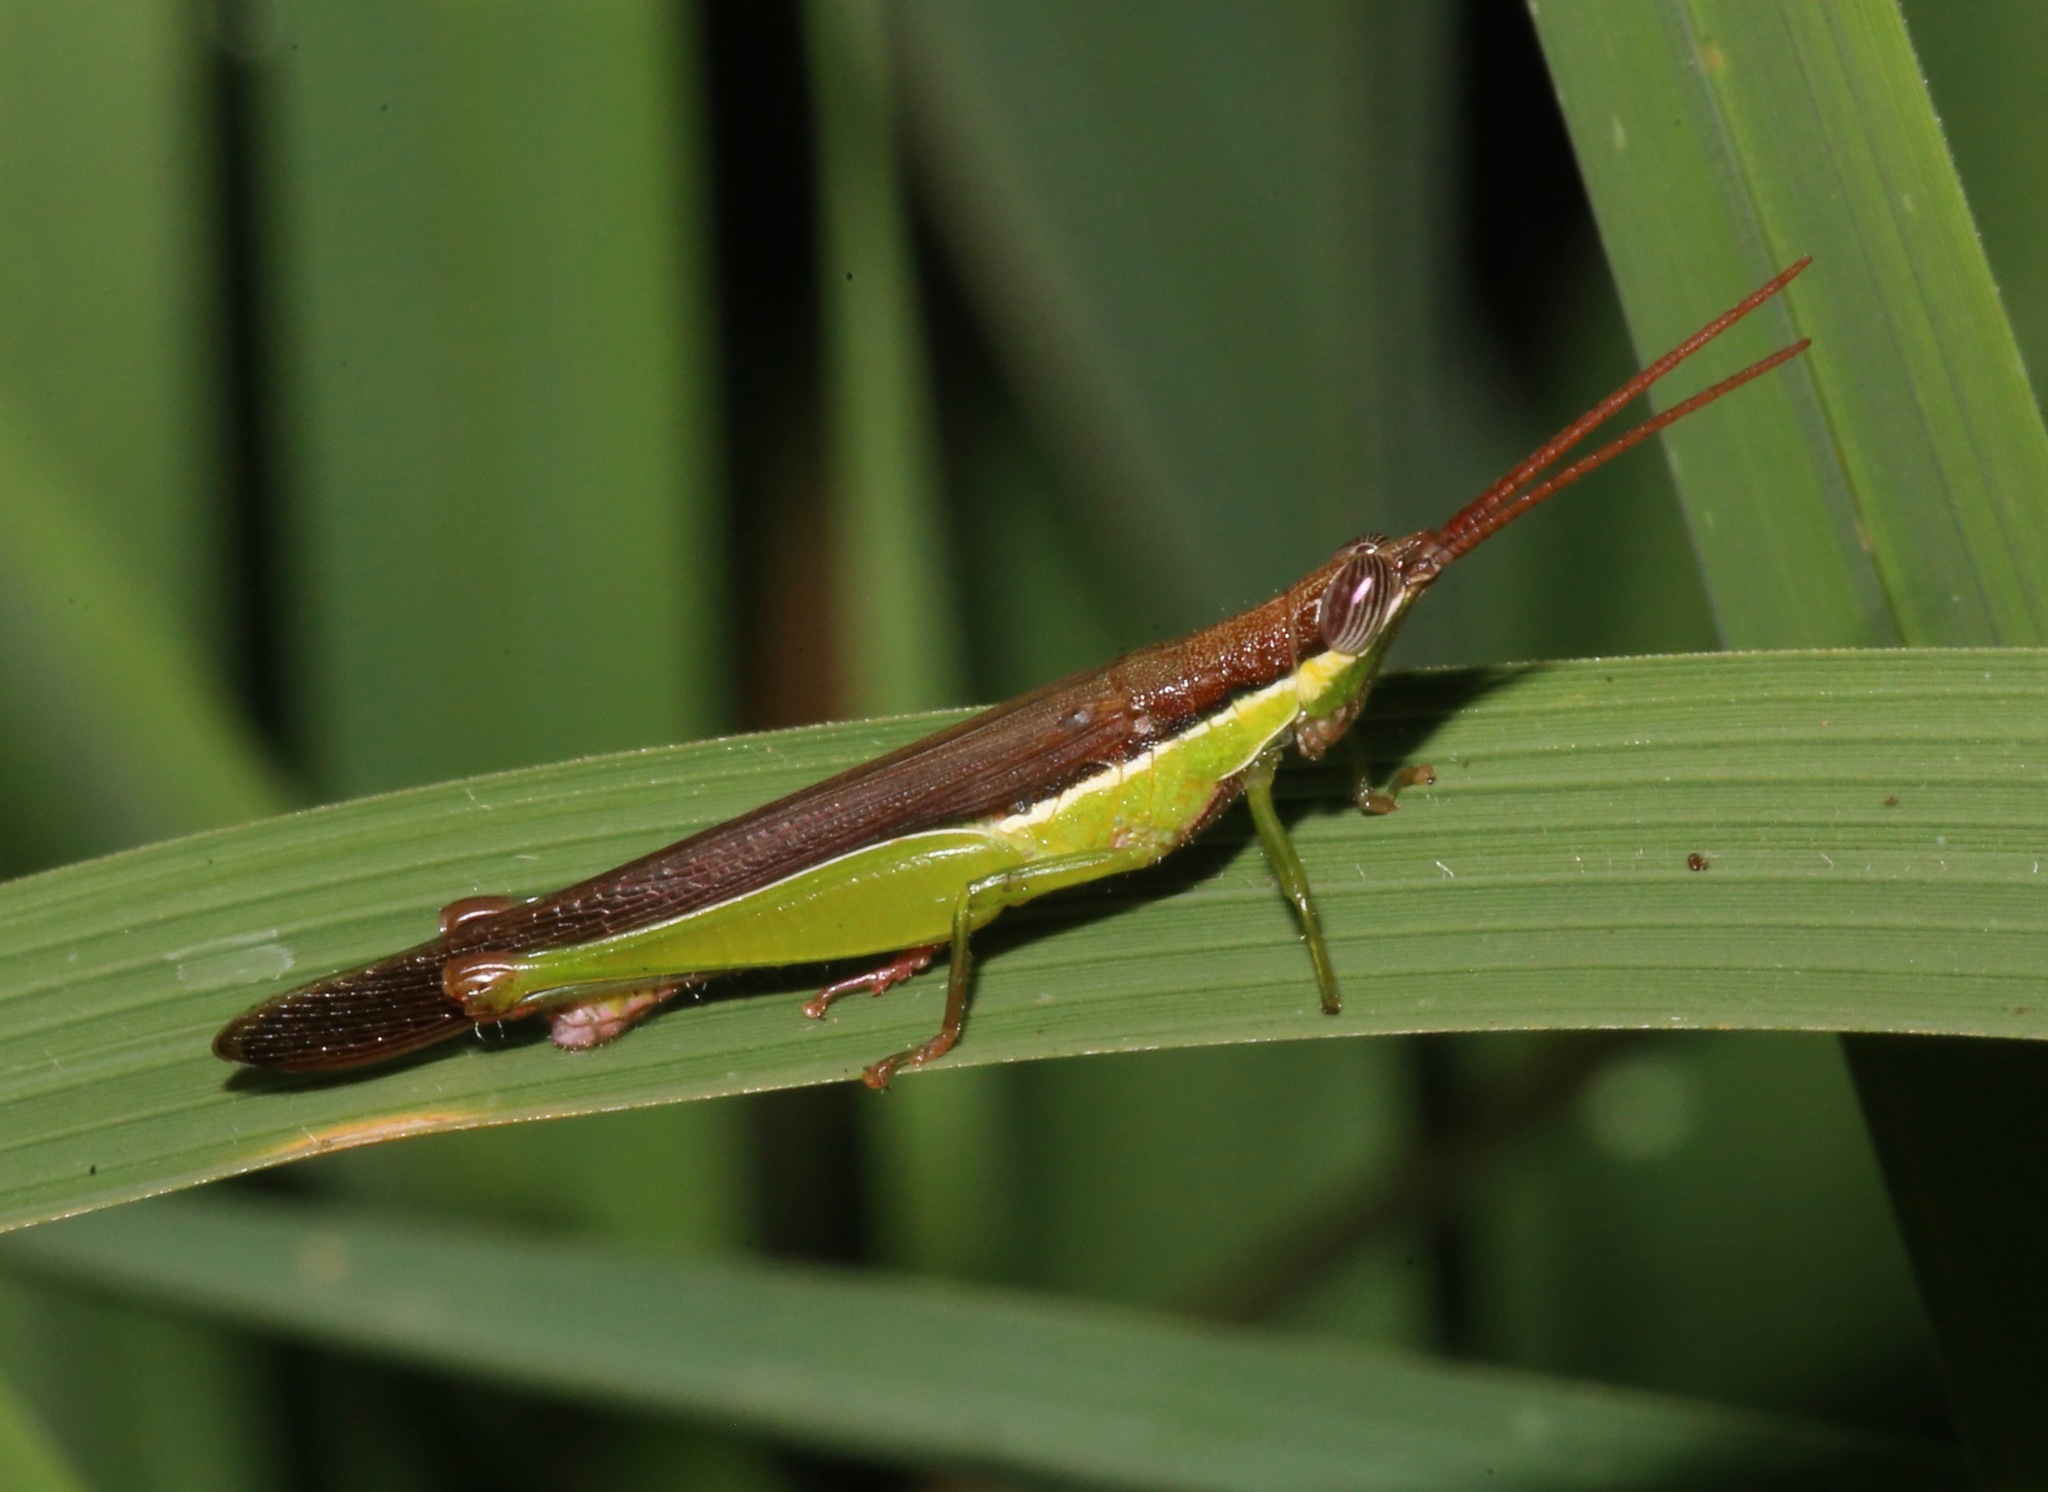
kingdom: Animalia
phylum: Arthropoda
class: Insecta
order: Orthoptera
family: Acrididae
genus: Stenopola
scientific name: Stenopola dorsalis
